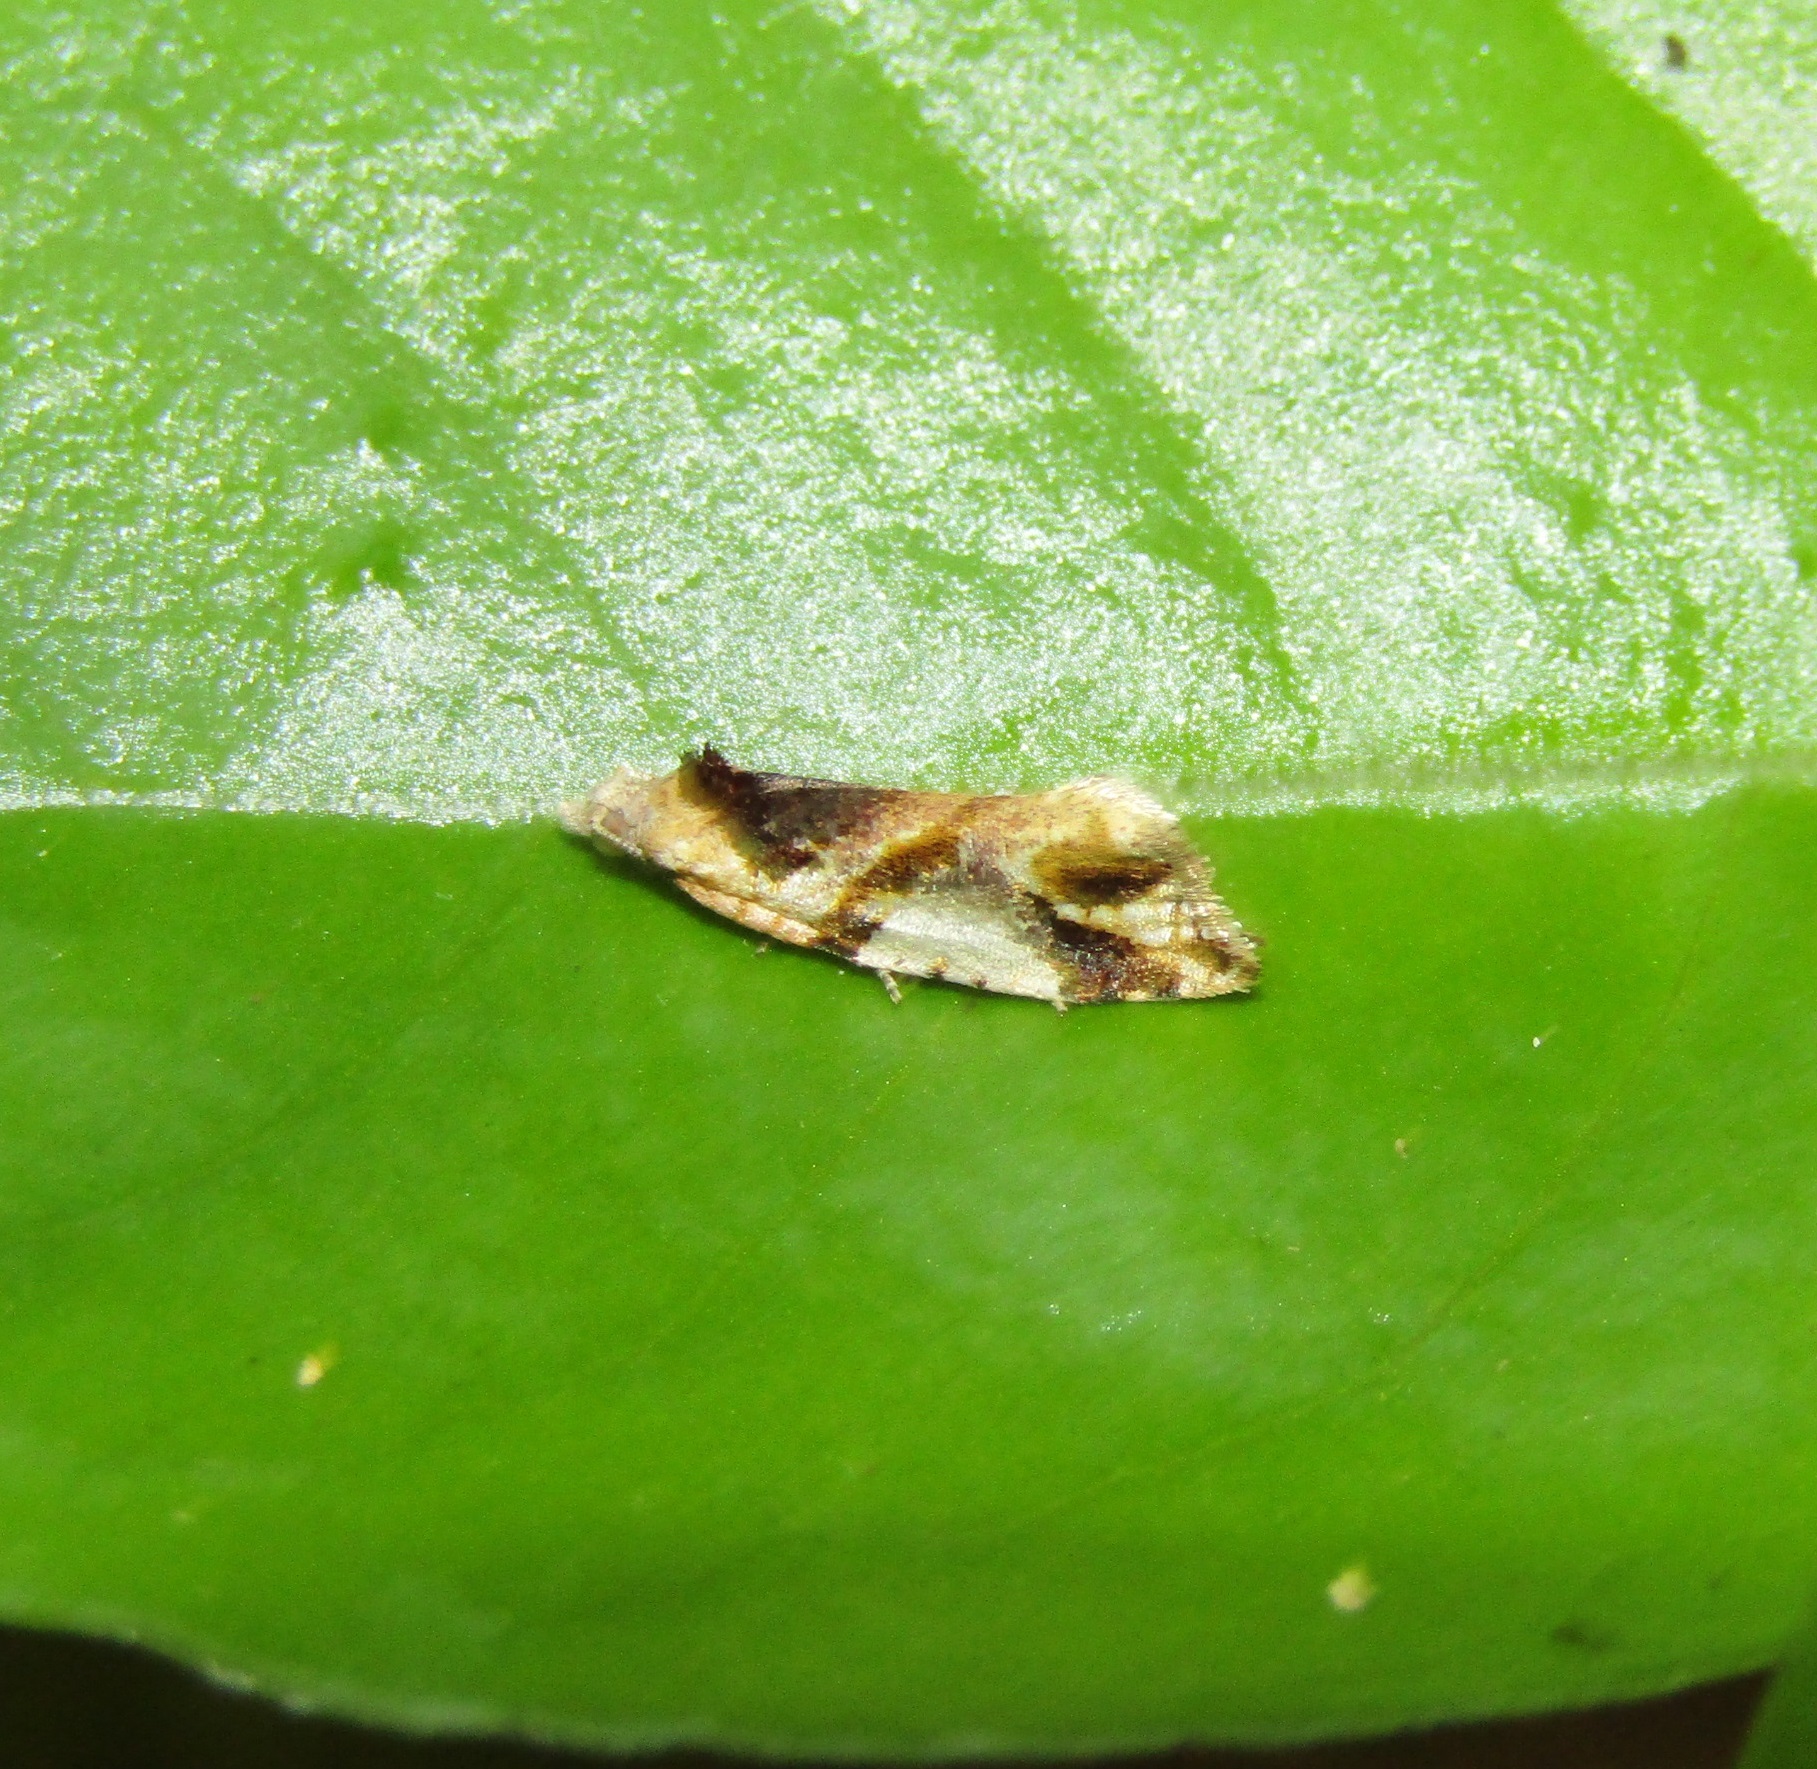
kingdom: Animalia
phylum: Arthropoda
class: Insecta
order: Lepidoptera
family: Tortricidae
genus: Pyrgotis
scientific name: Pyrgotis plagiatana
